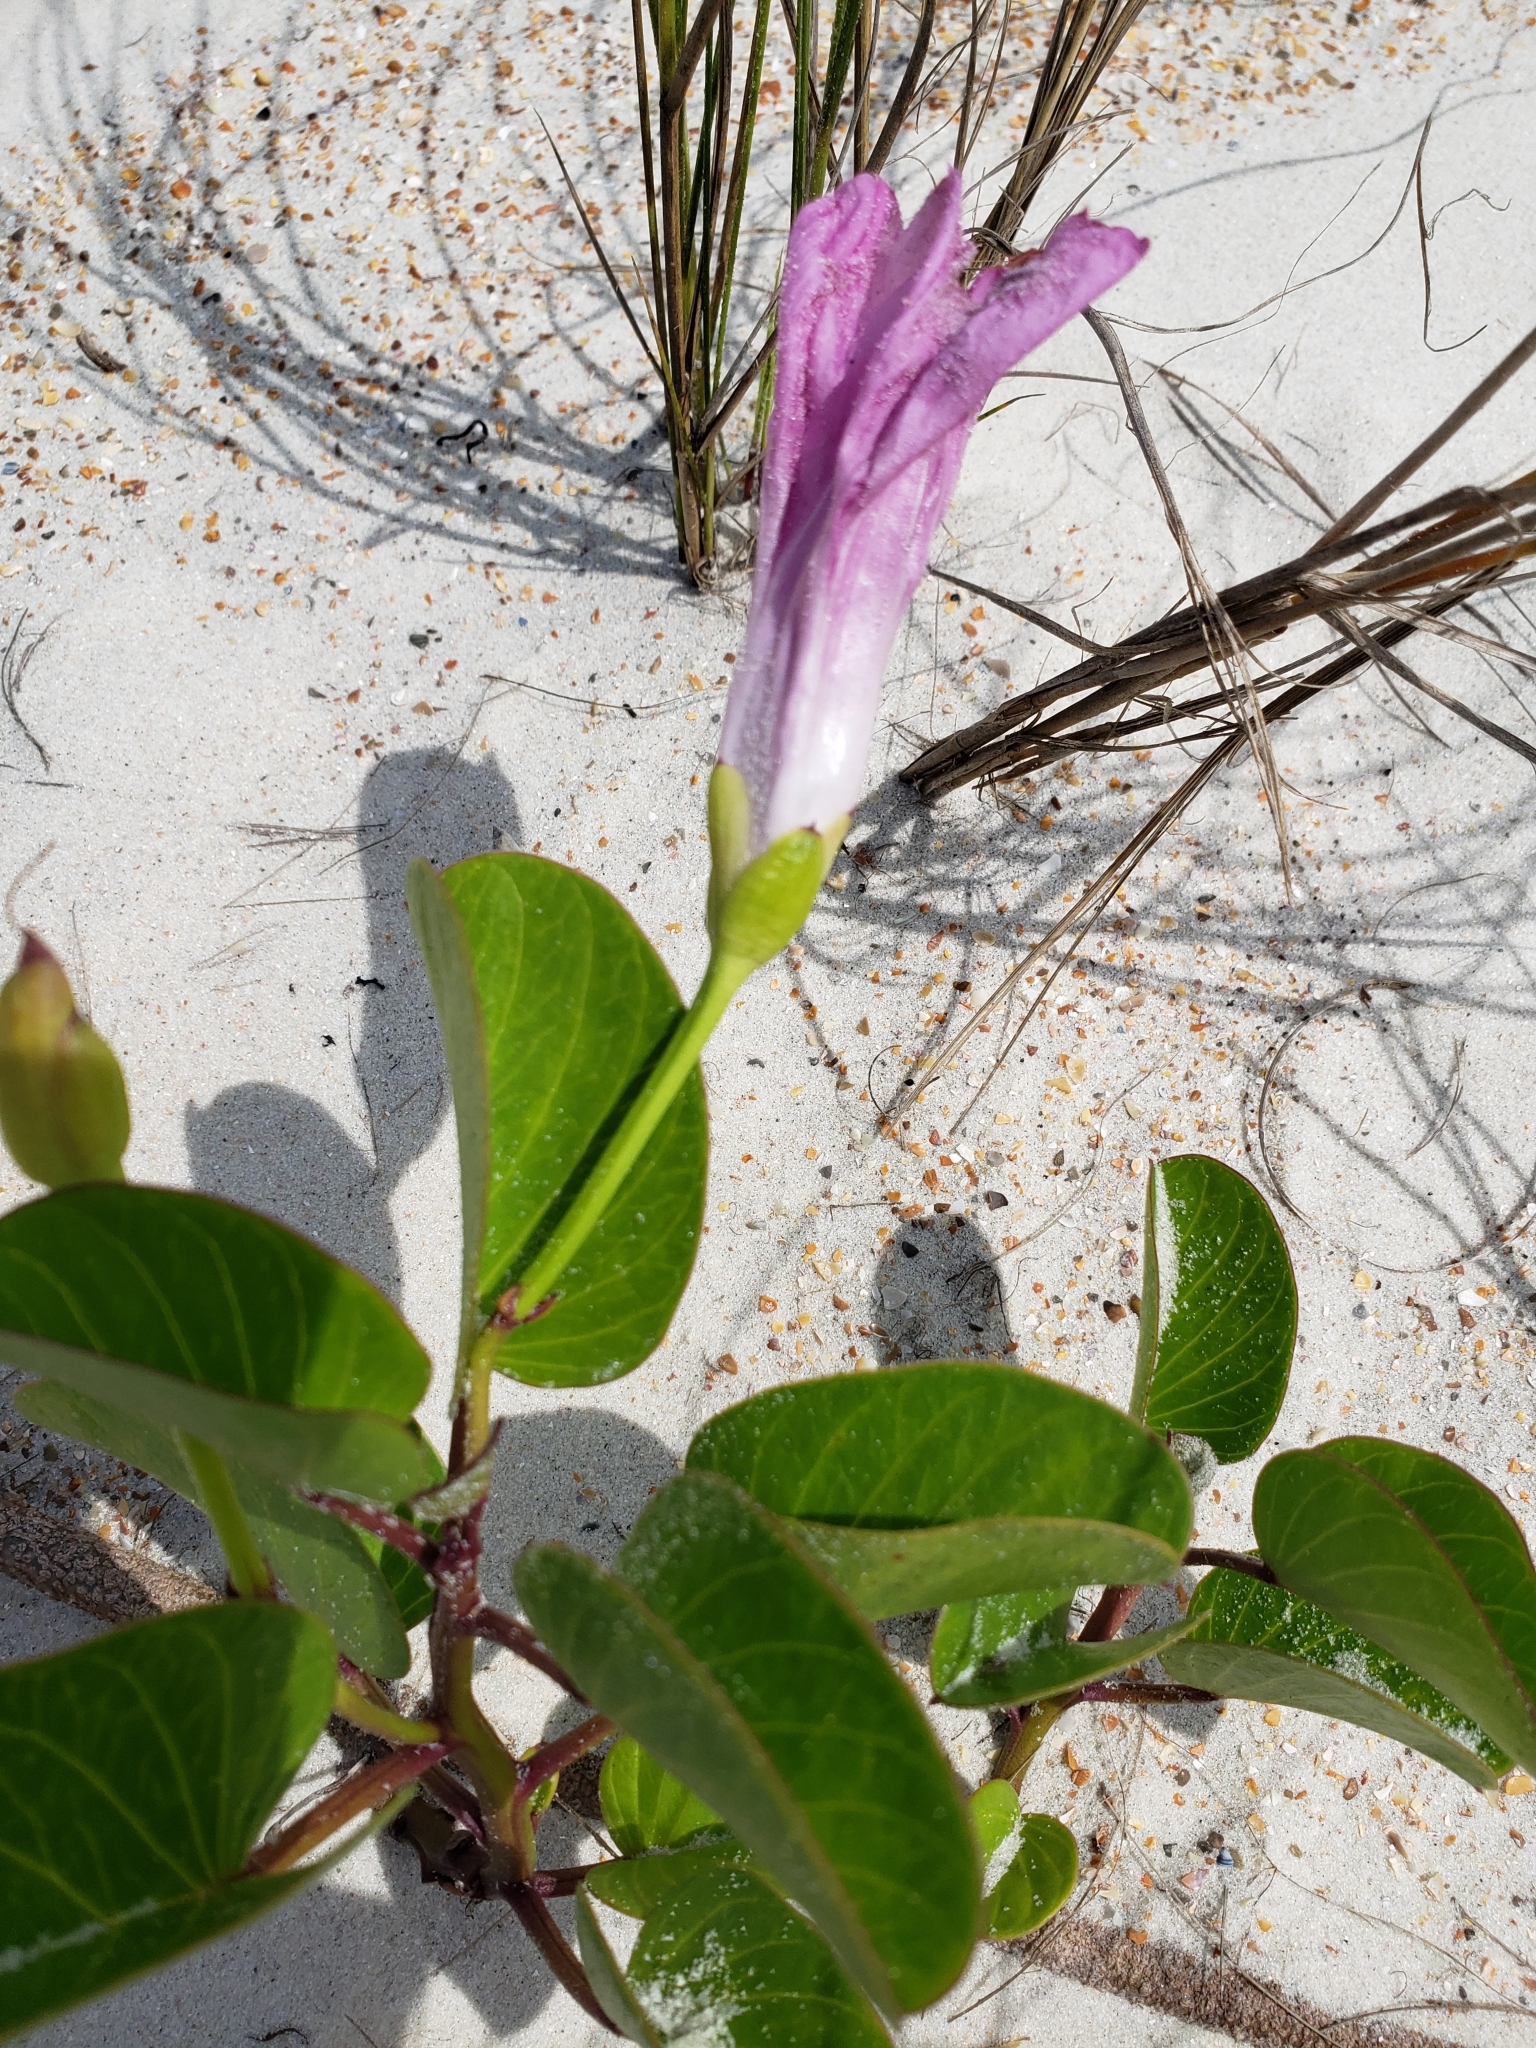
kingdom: Plantae
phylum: Tracheophyta
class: Magnoliopsida
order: Solanales
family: Convolvulaceae
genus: Ipomoea
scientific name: Ipomoea pes-caprae
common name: Beach morning glory
